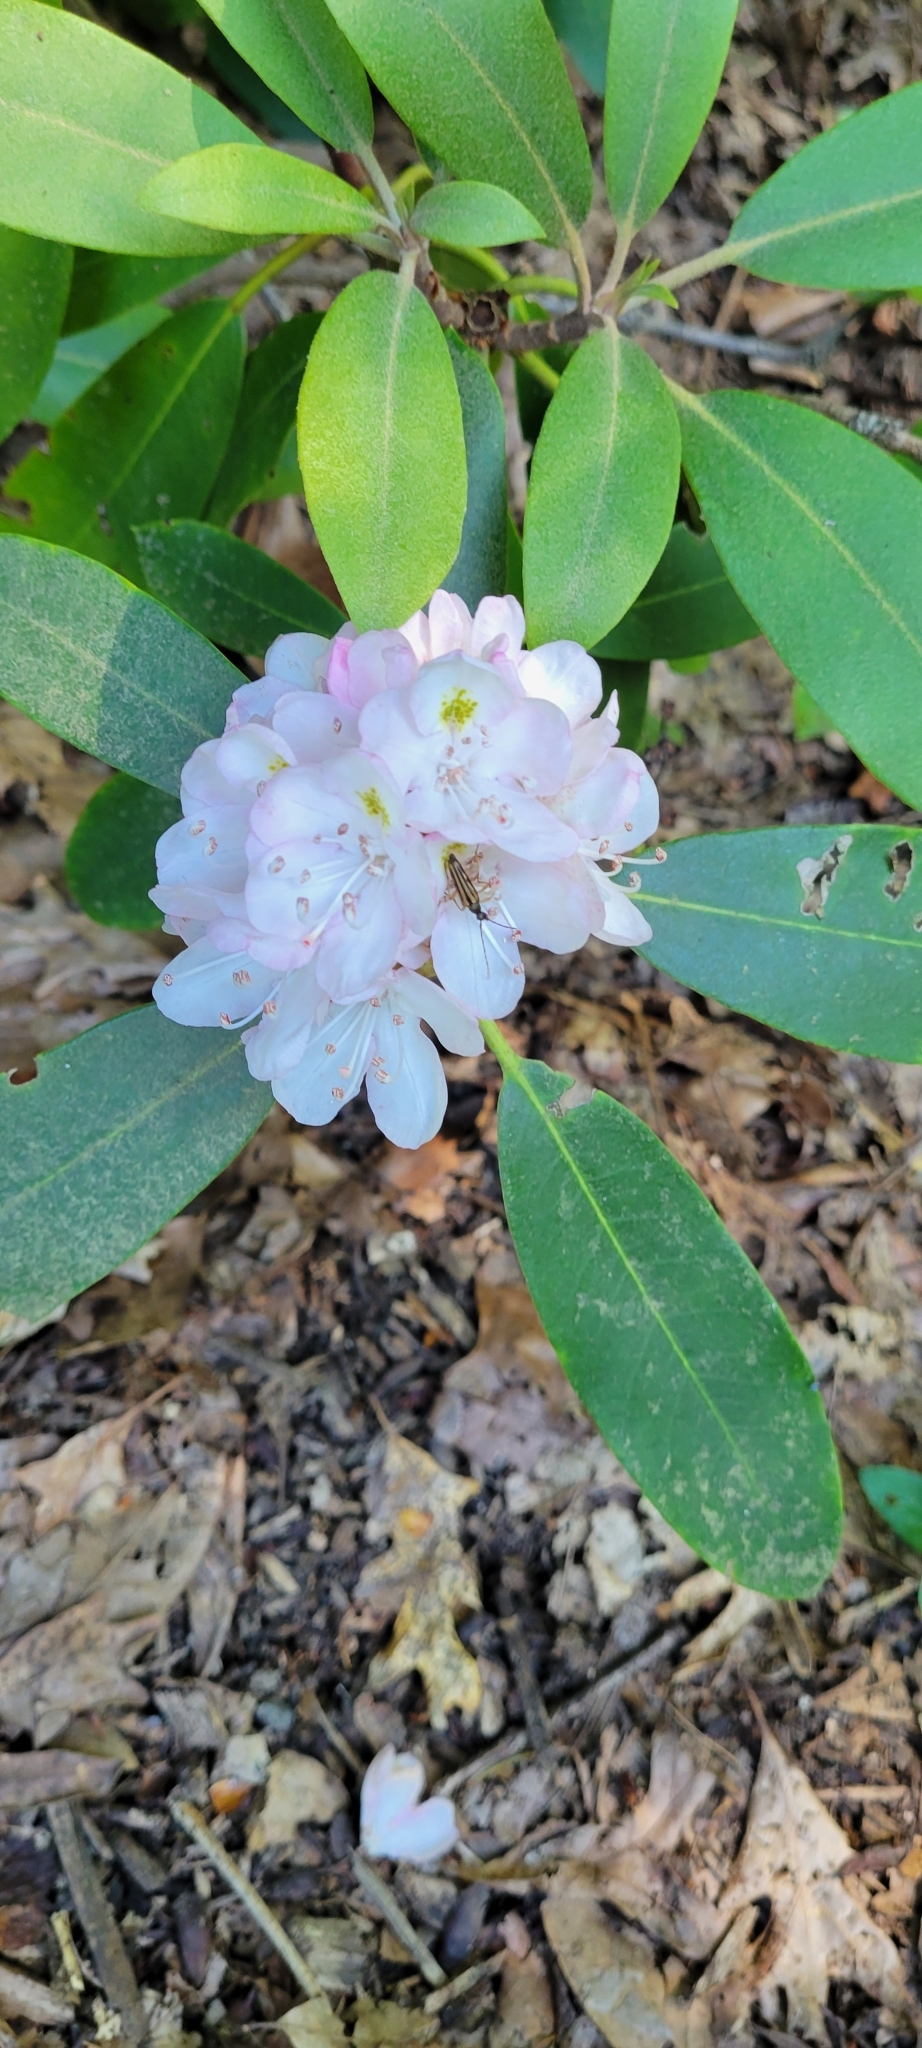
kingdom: Plantae
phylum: Tracheophyta
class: Magnoliopsida
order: Ericales
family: Ericaceae
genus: Rhododendron
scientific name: Rhododendron maximum
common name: Great rhododendron
